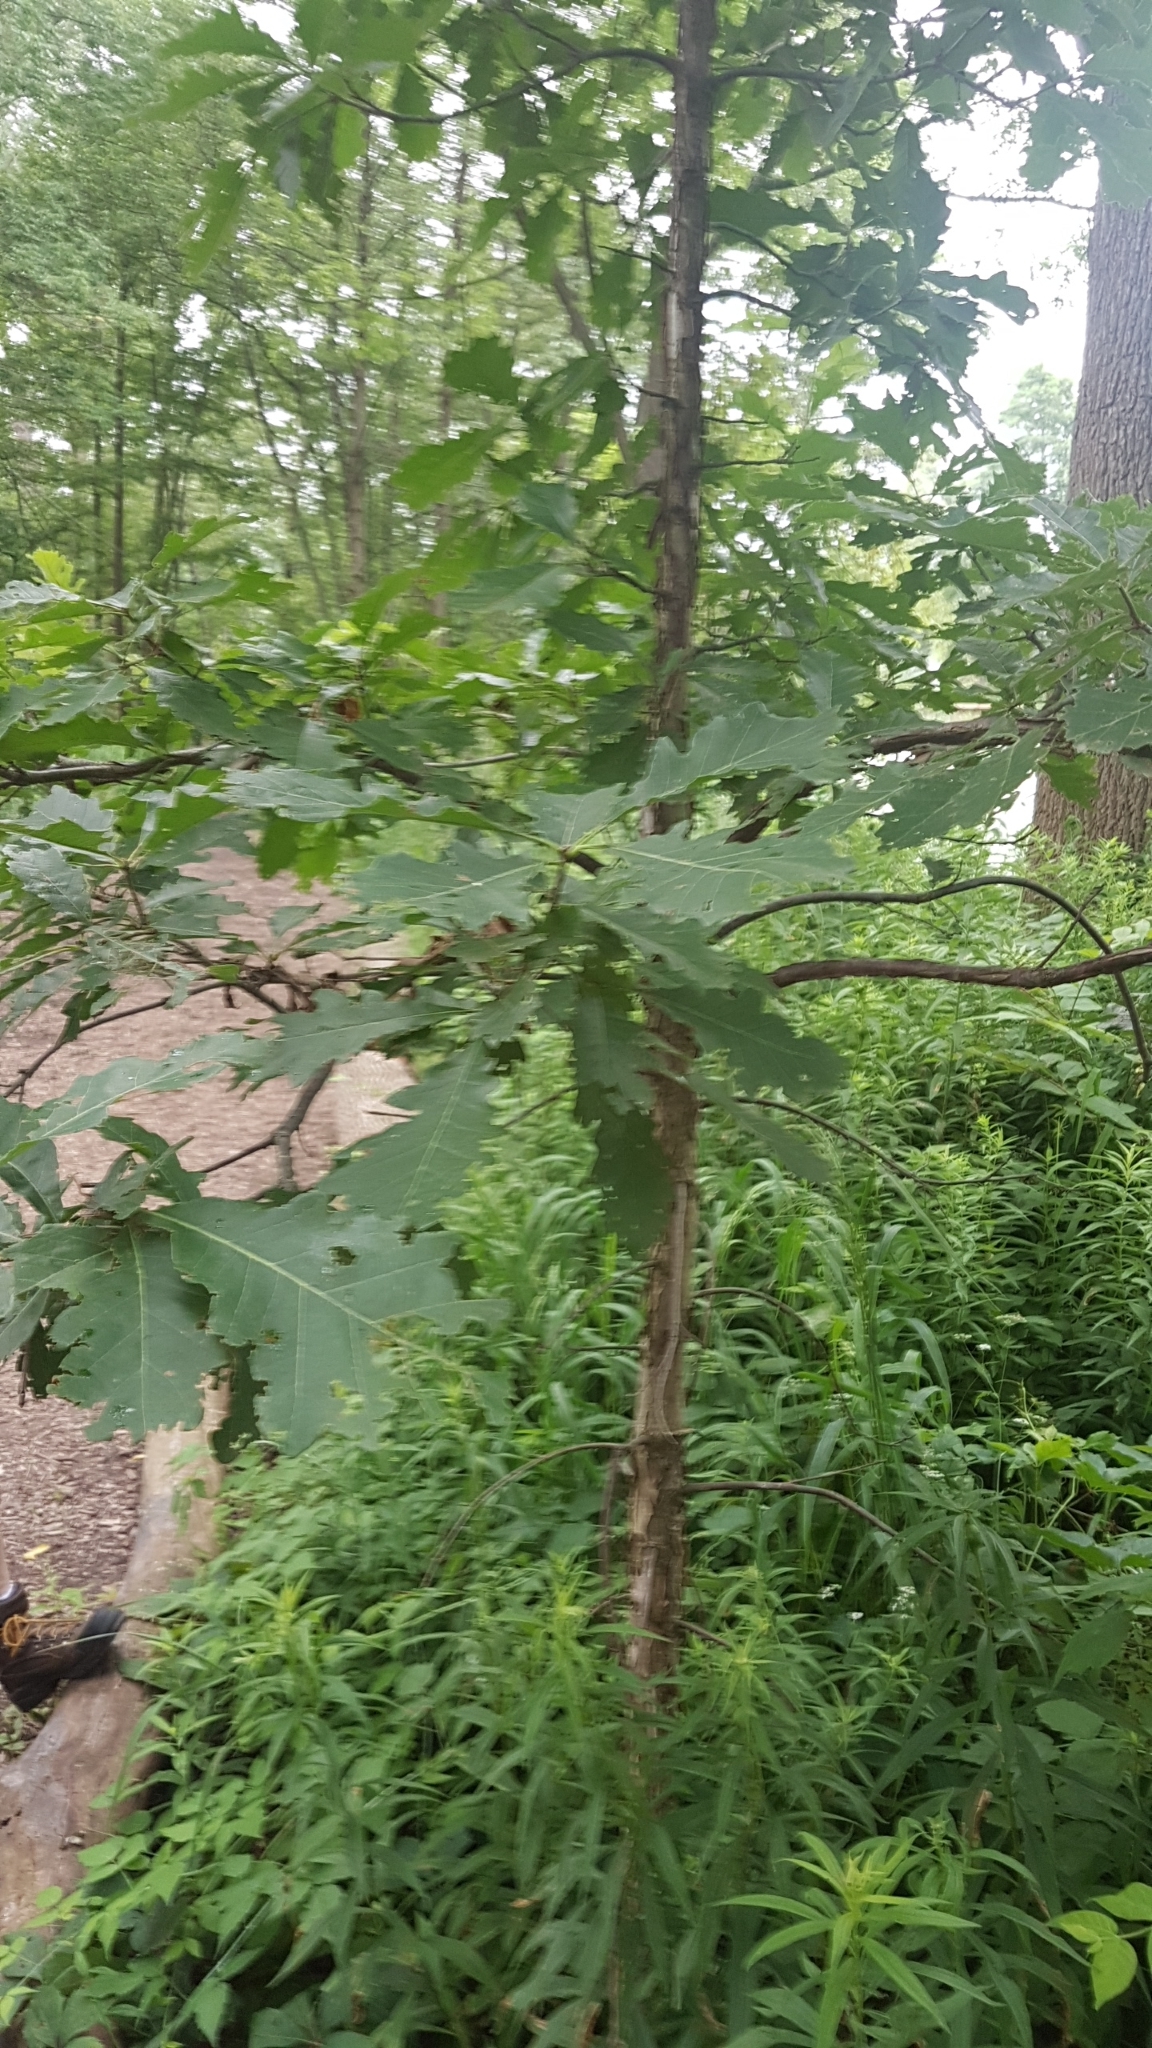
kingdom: Plantae
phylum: Tracheophyta
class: Magnoliopsida
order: Fagales
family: Fagaceae
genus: Quercus
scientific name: Quercus bicolor
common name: Swamp white oak
